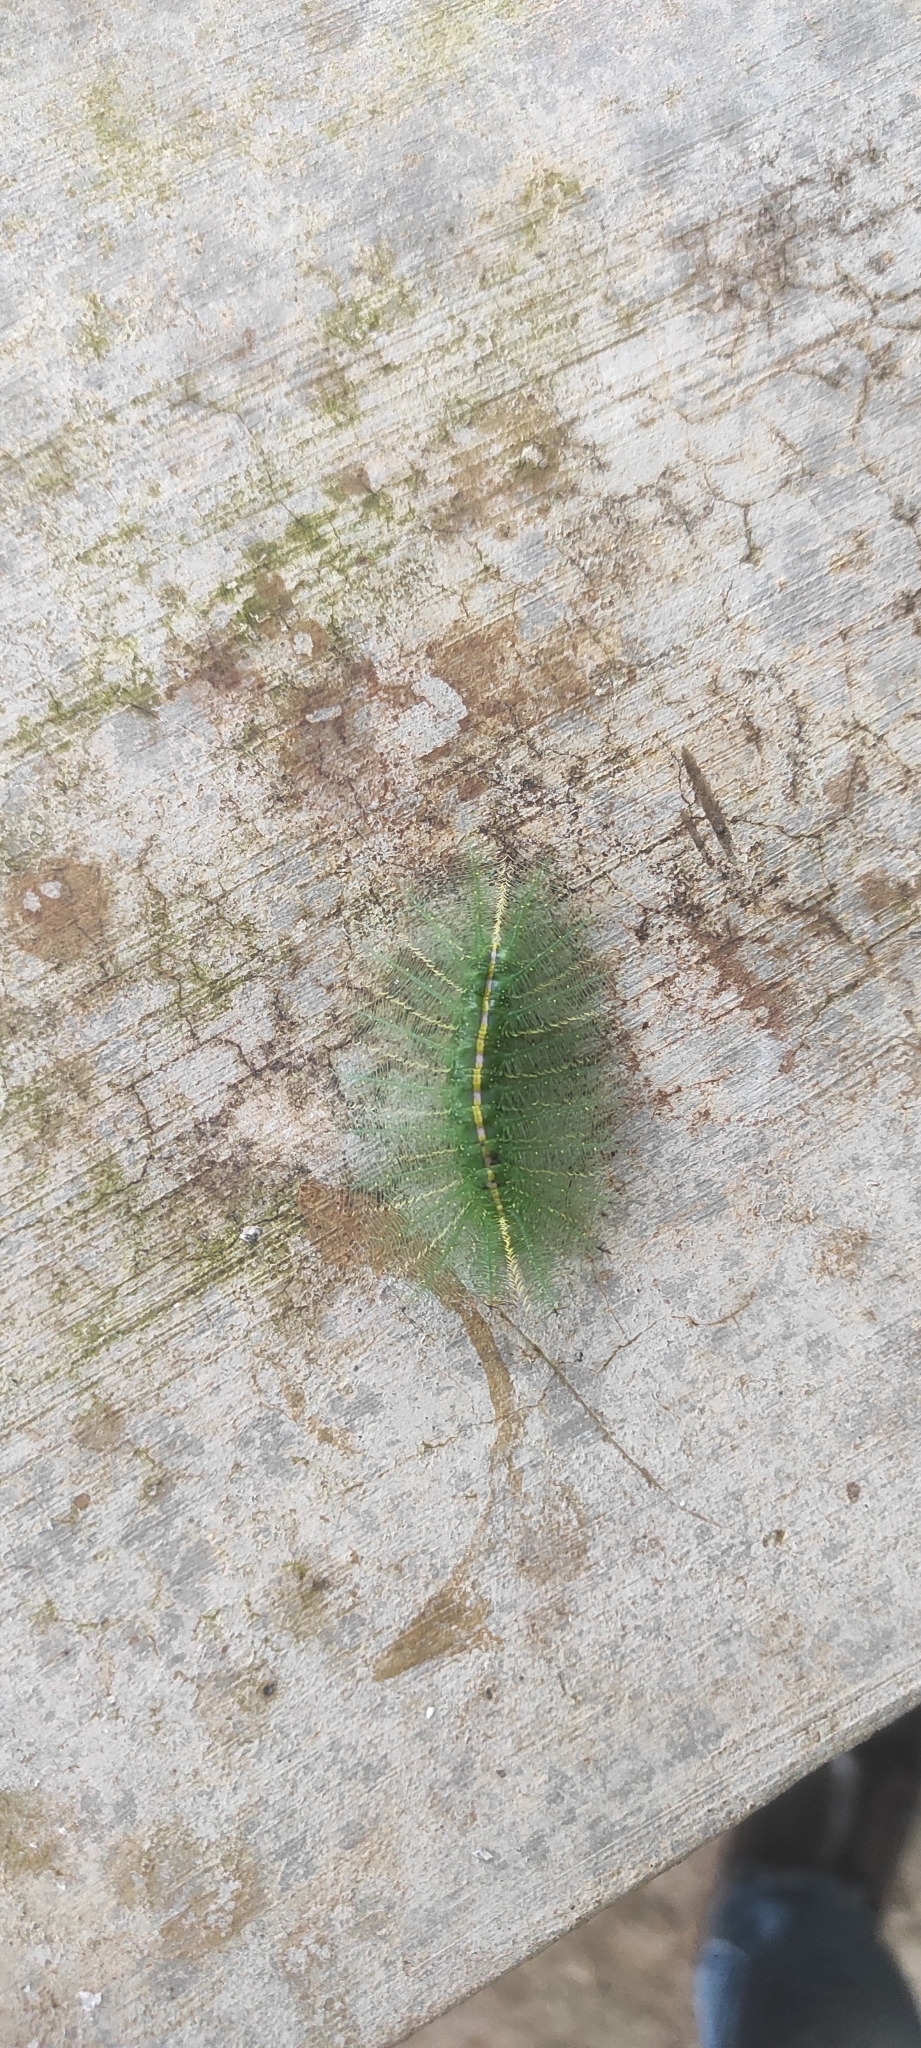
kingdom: Animalia
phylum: Arthropoda
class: Insecta
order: Lepidoptera
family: Nymphalidae
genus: Euthalia
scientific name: Euthalia aconthea
